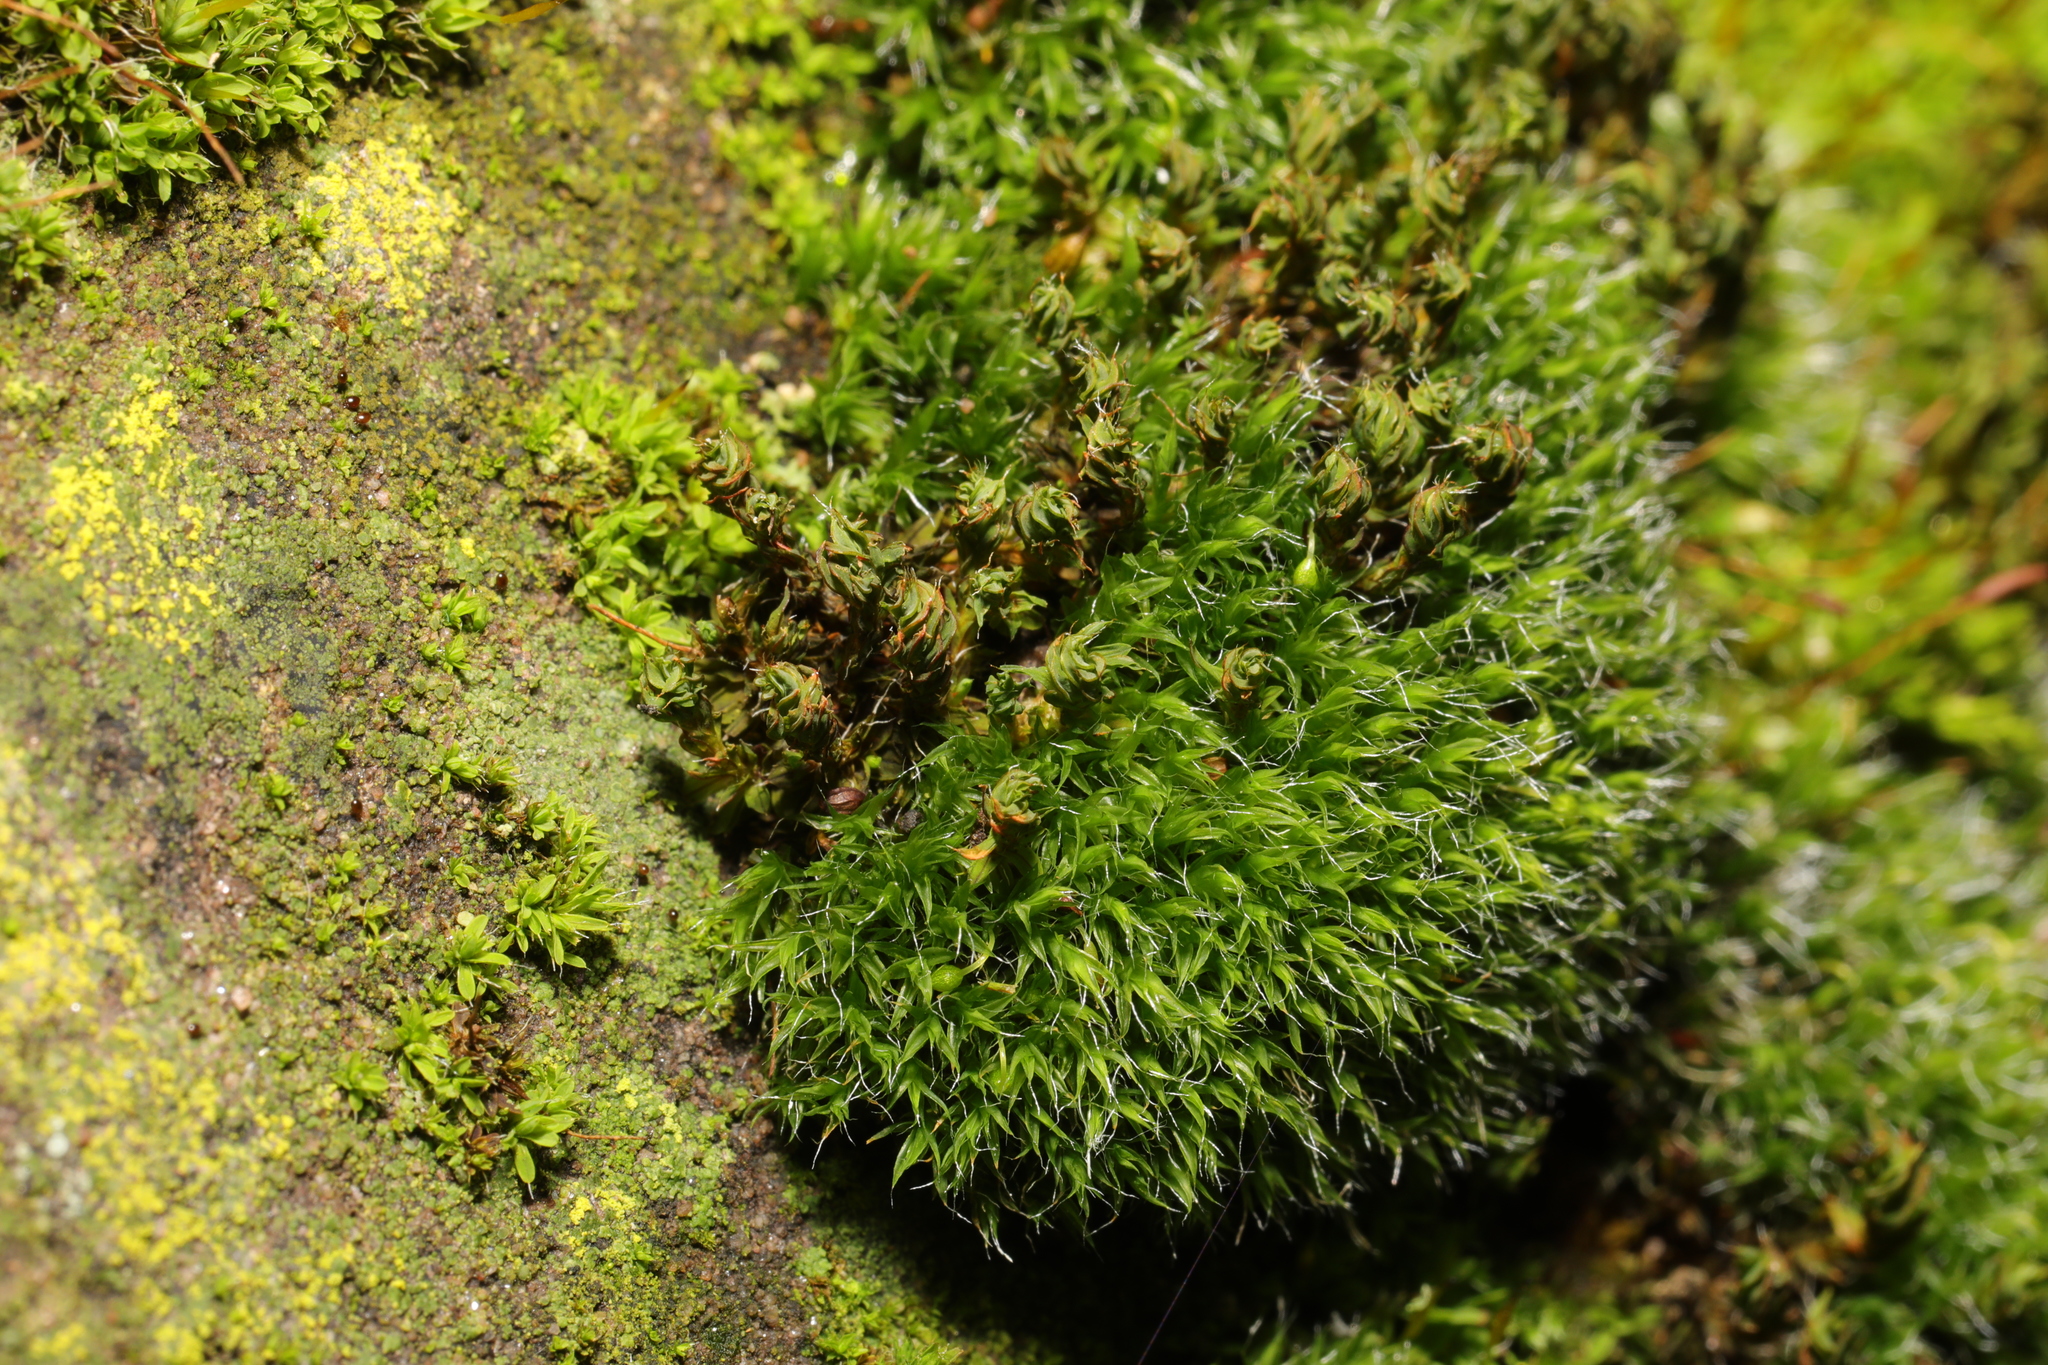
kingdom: Plantae
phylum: Bryophyta
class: Bryopsida
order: Grimmiales
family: Grimmiaceae
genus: Grimmia
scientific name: Grimmia pulvinata
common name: Grey-cushioned grimmia
